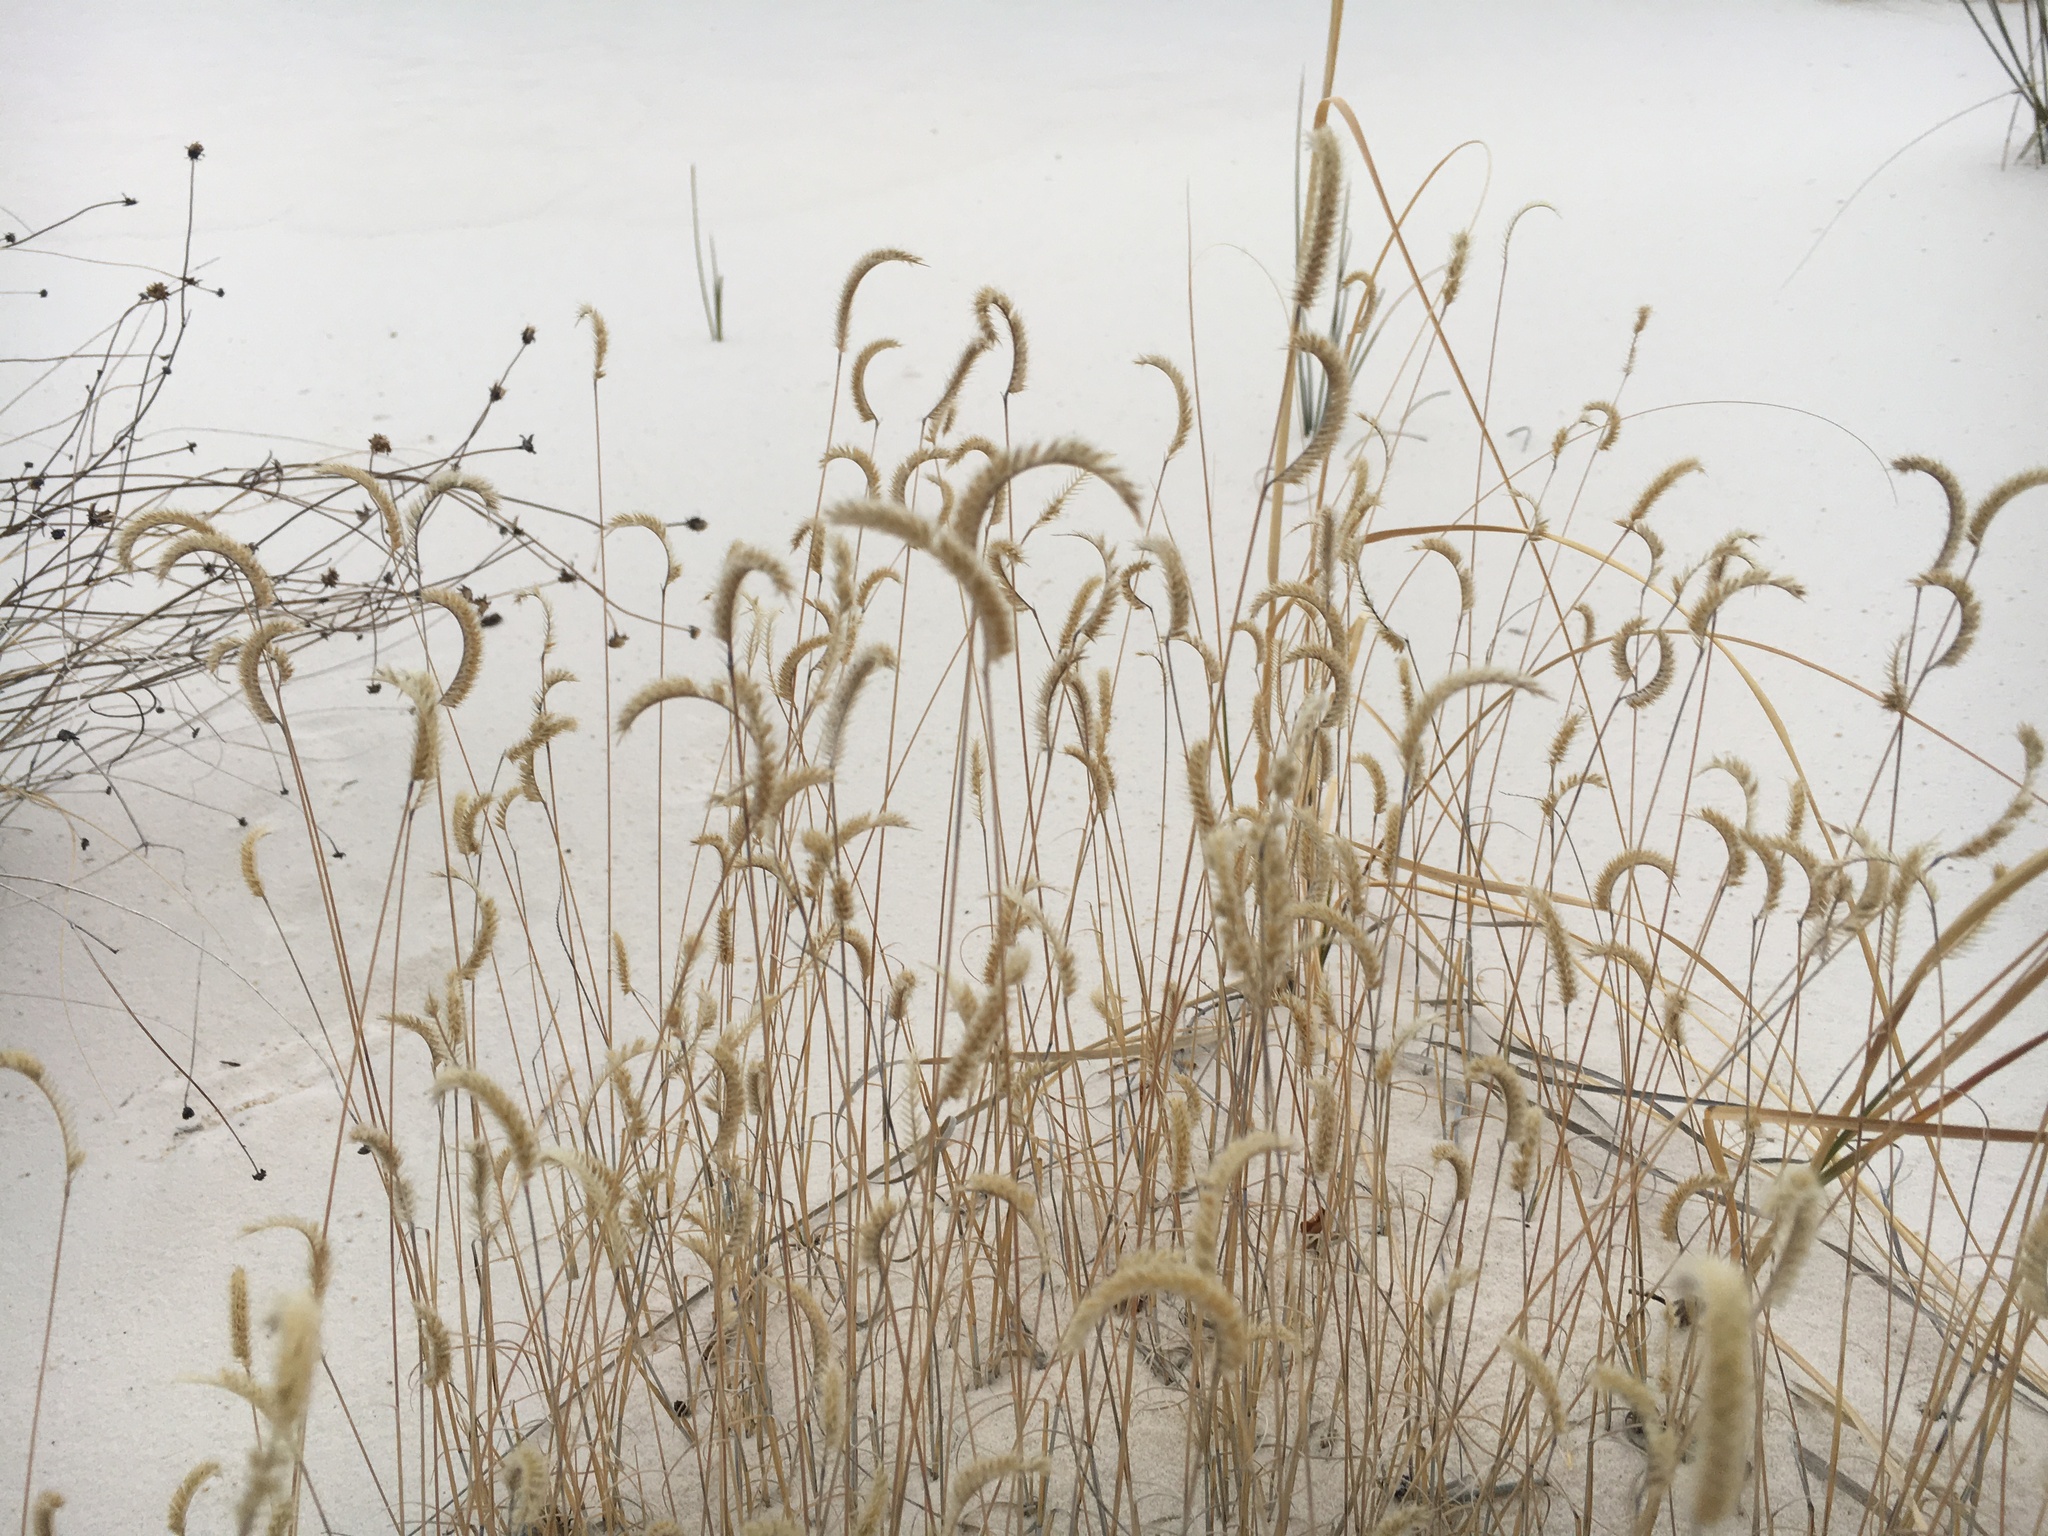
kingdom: Plantae
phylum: Tracheophyta
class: Liliopsida
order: Poales
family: Poaceae
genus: Bouteloua
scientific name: Bouteloua breviseta
